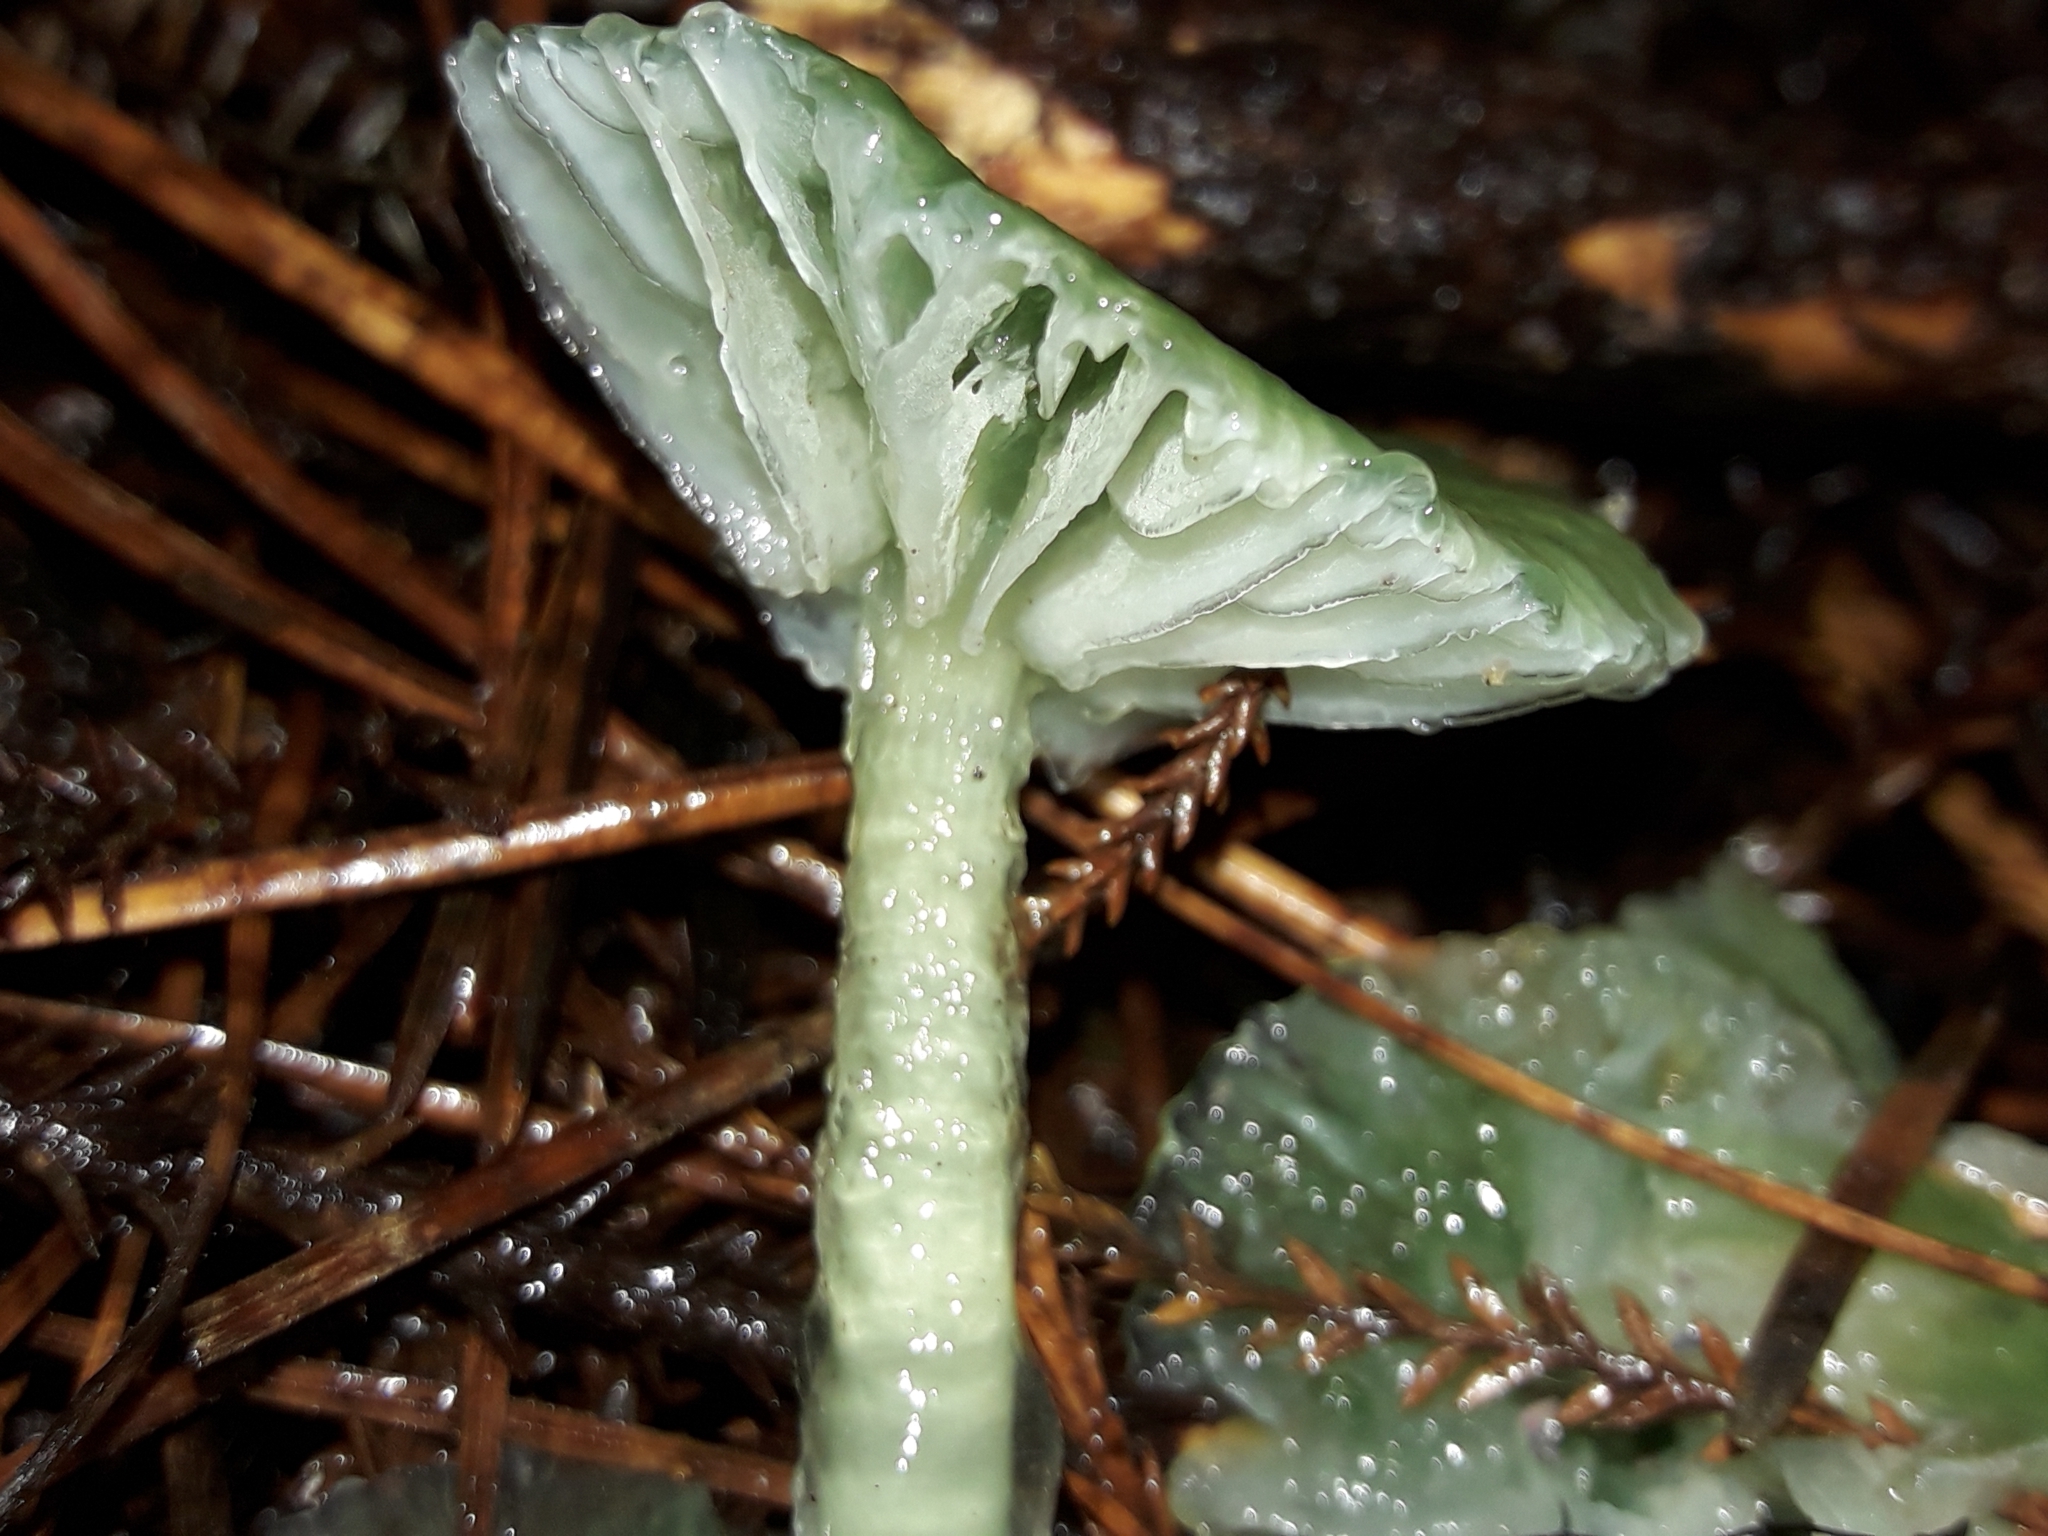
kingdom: Fungi
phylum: Basidiomycota
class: Agaricomycetes
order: Agaricales
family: Hygrophoraceae
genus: Gliophorus
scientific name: Gliophorus graminicolor
